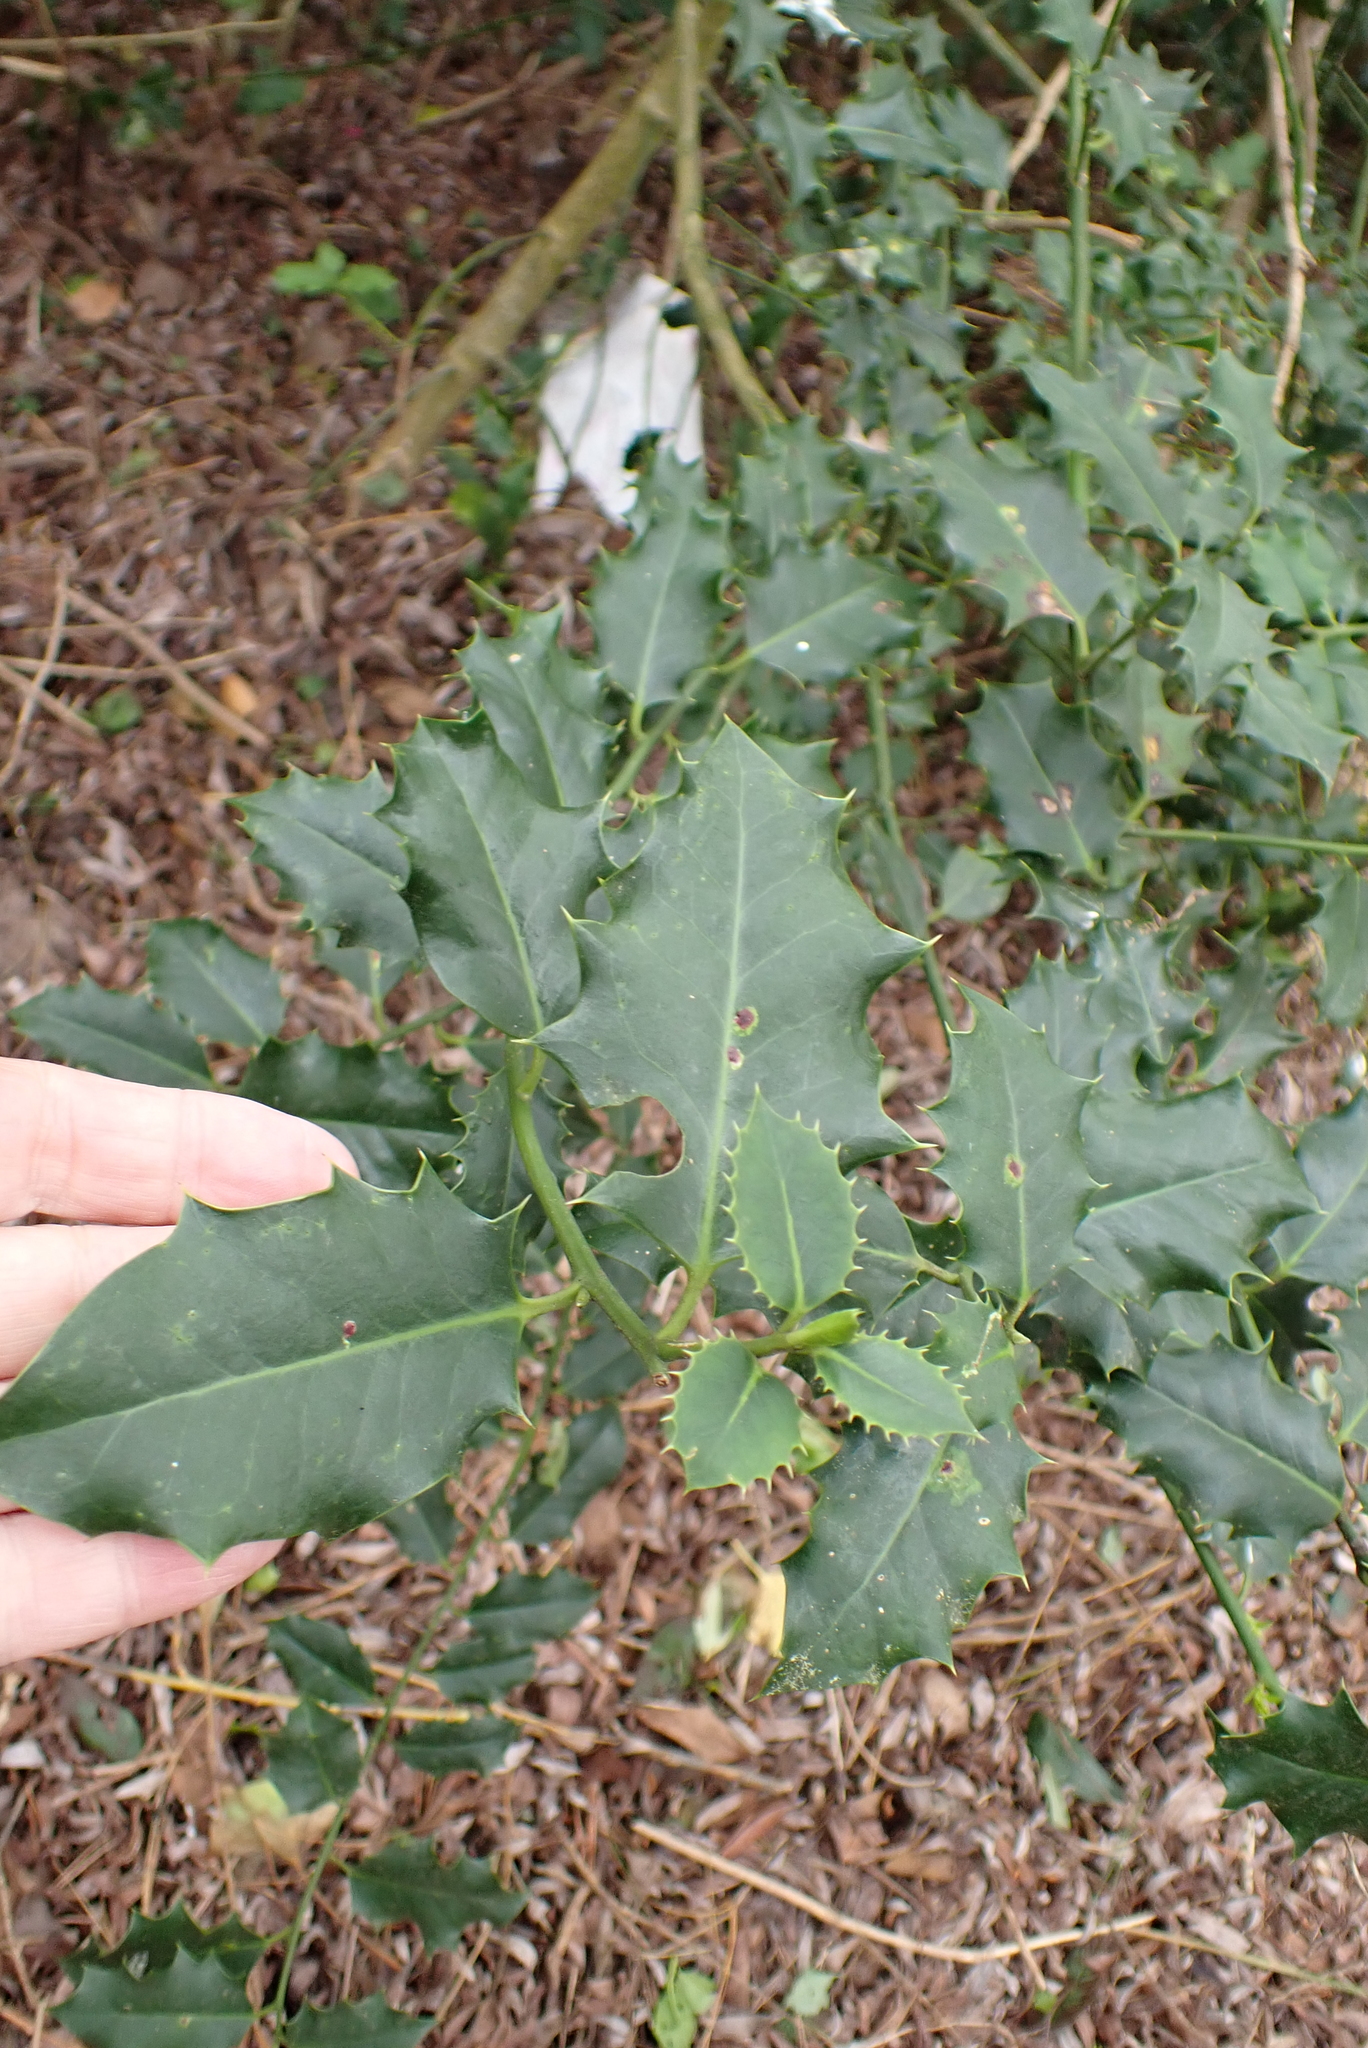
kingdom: Plantae
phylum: Tracheophyta
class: Magnoliopsida
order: Aquifoliales
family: Aquifoliaceae
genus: Ilex
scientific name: Ilex aquifolium
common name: English holly
